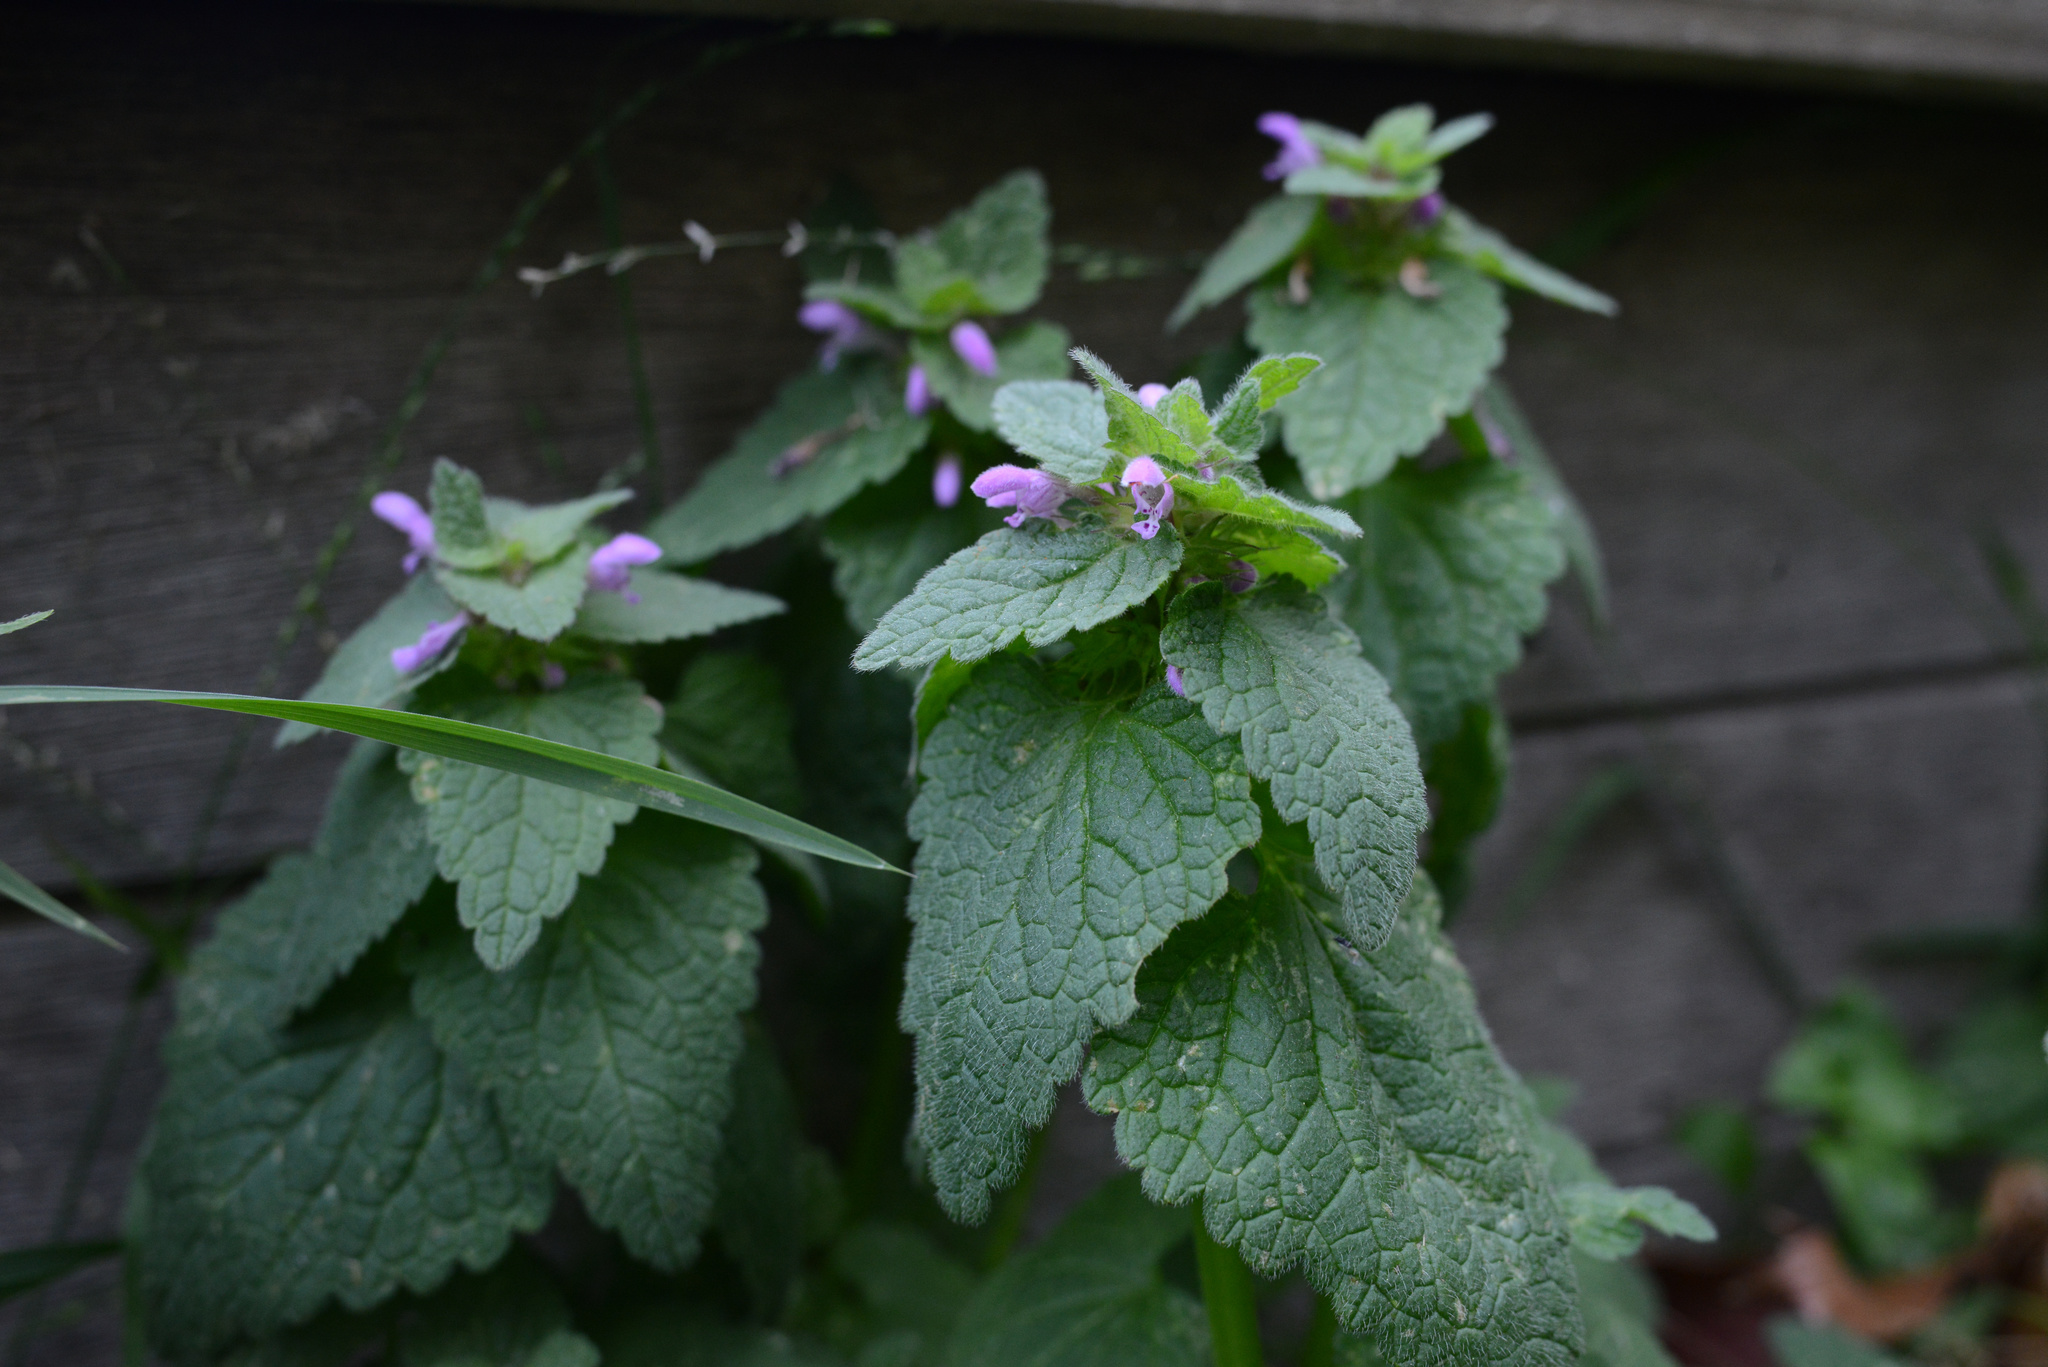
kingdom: Plantae
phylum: Tracheophyta
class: Magnoliopsida
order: Lamiales
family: Lamiaceae
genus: Lamium
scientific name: Lamium purpureum
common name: Red dead-nettle
